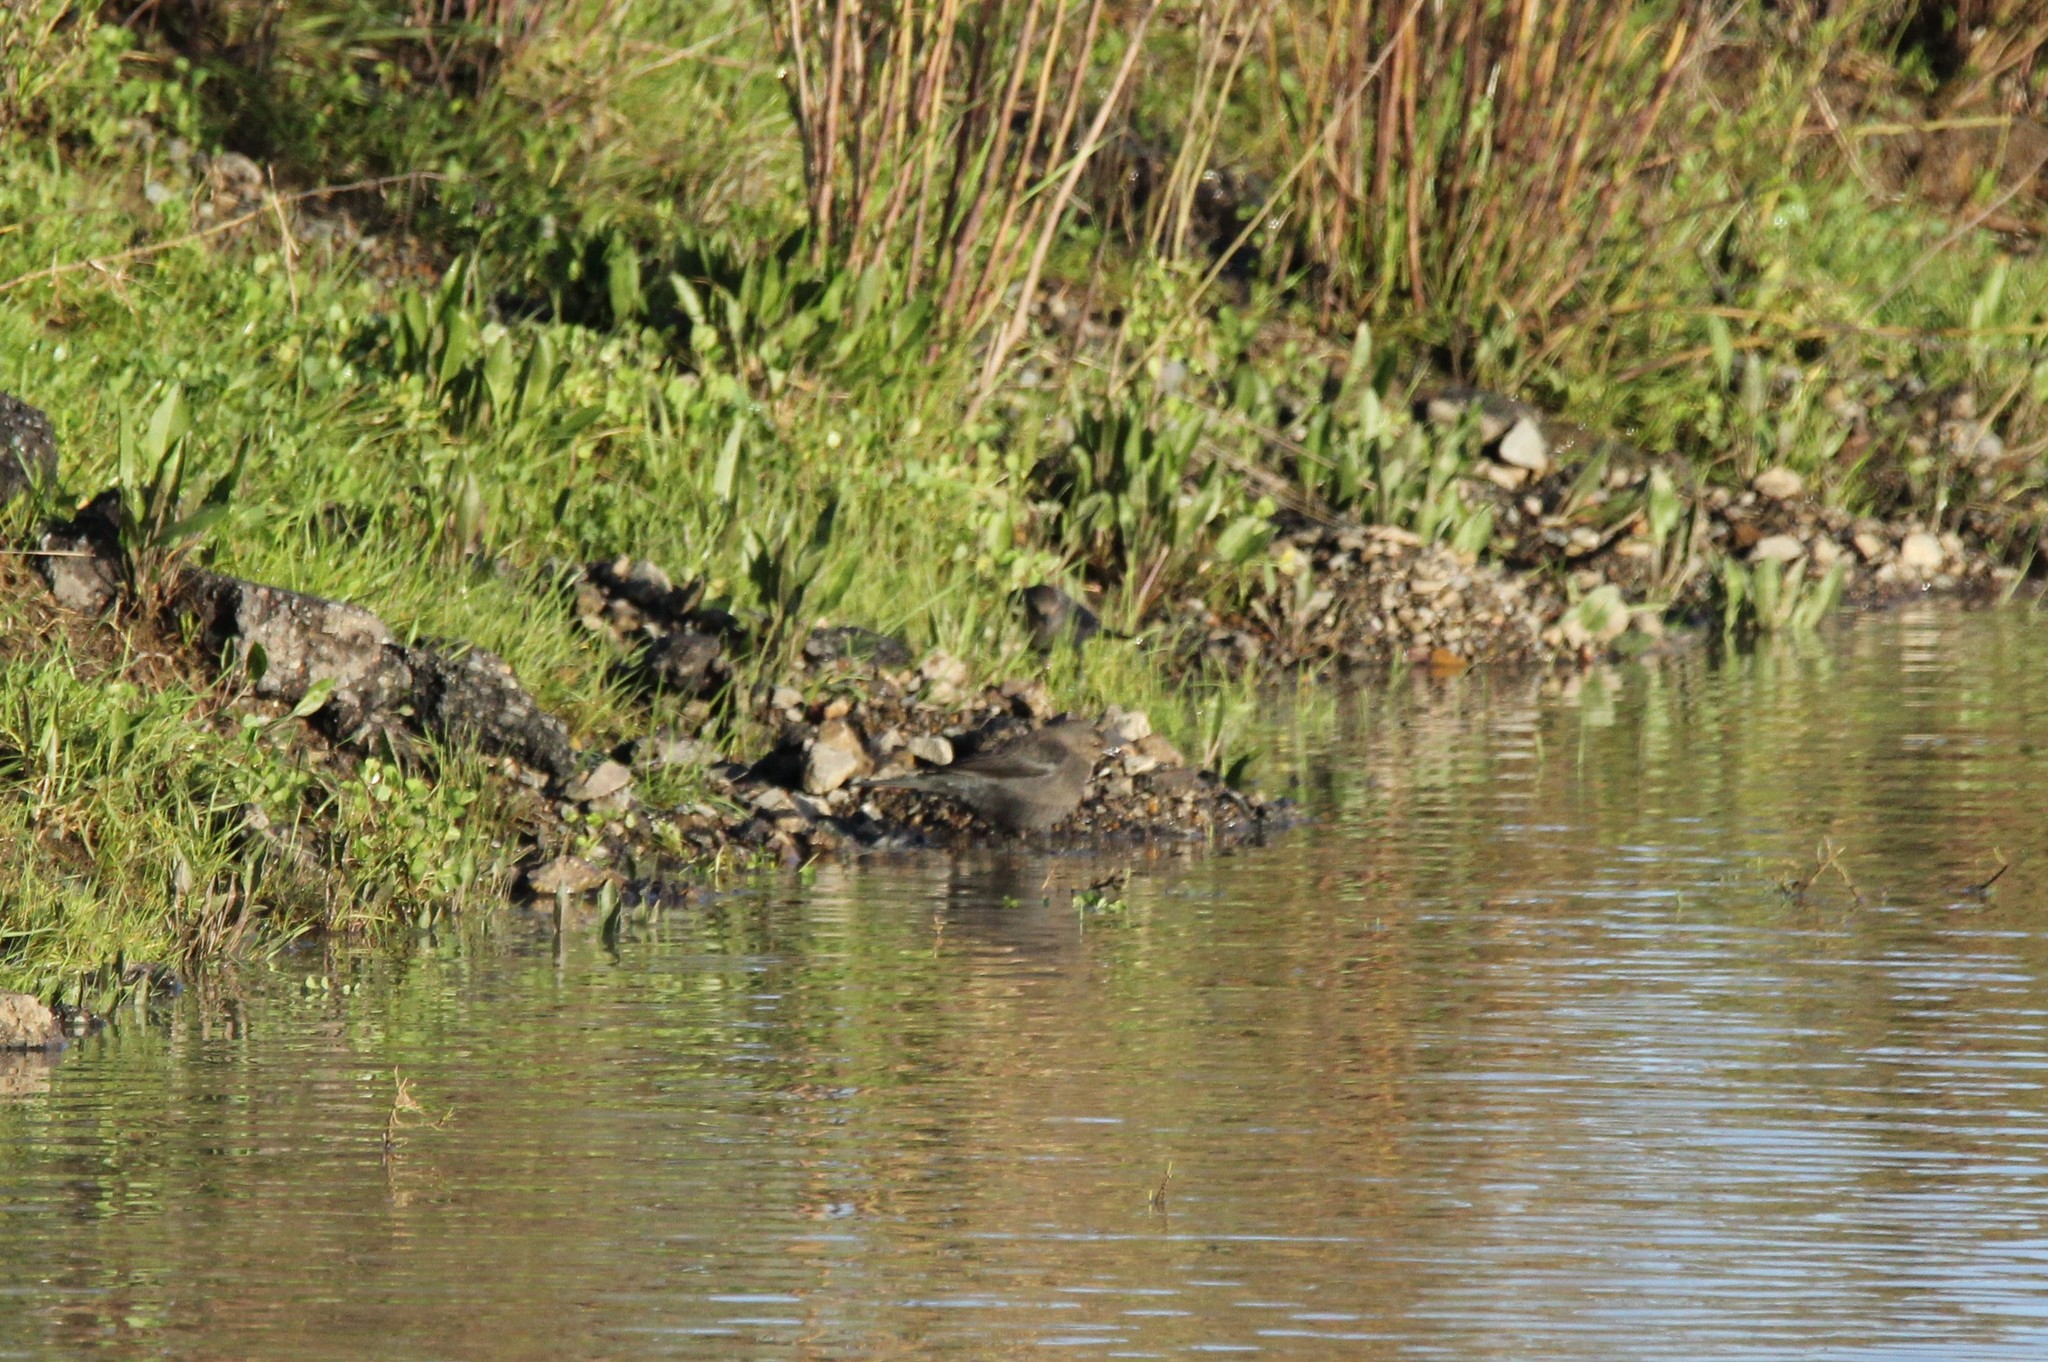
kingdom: Animalia
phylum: Chordata
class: Aves
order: Passeriformes
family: Icteridae
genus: Euphagus
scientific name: Euphagus cyanocephalus
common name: Brewer's blackbird
